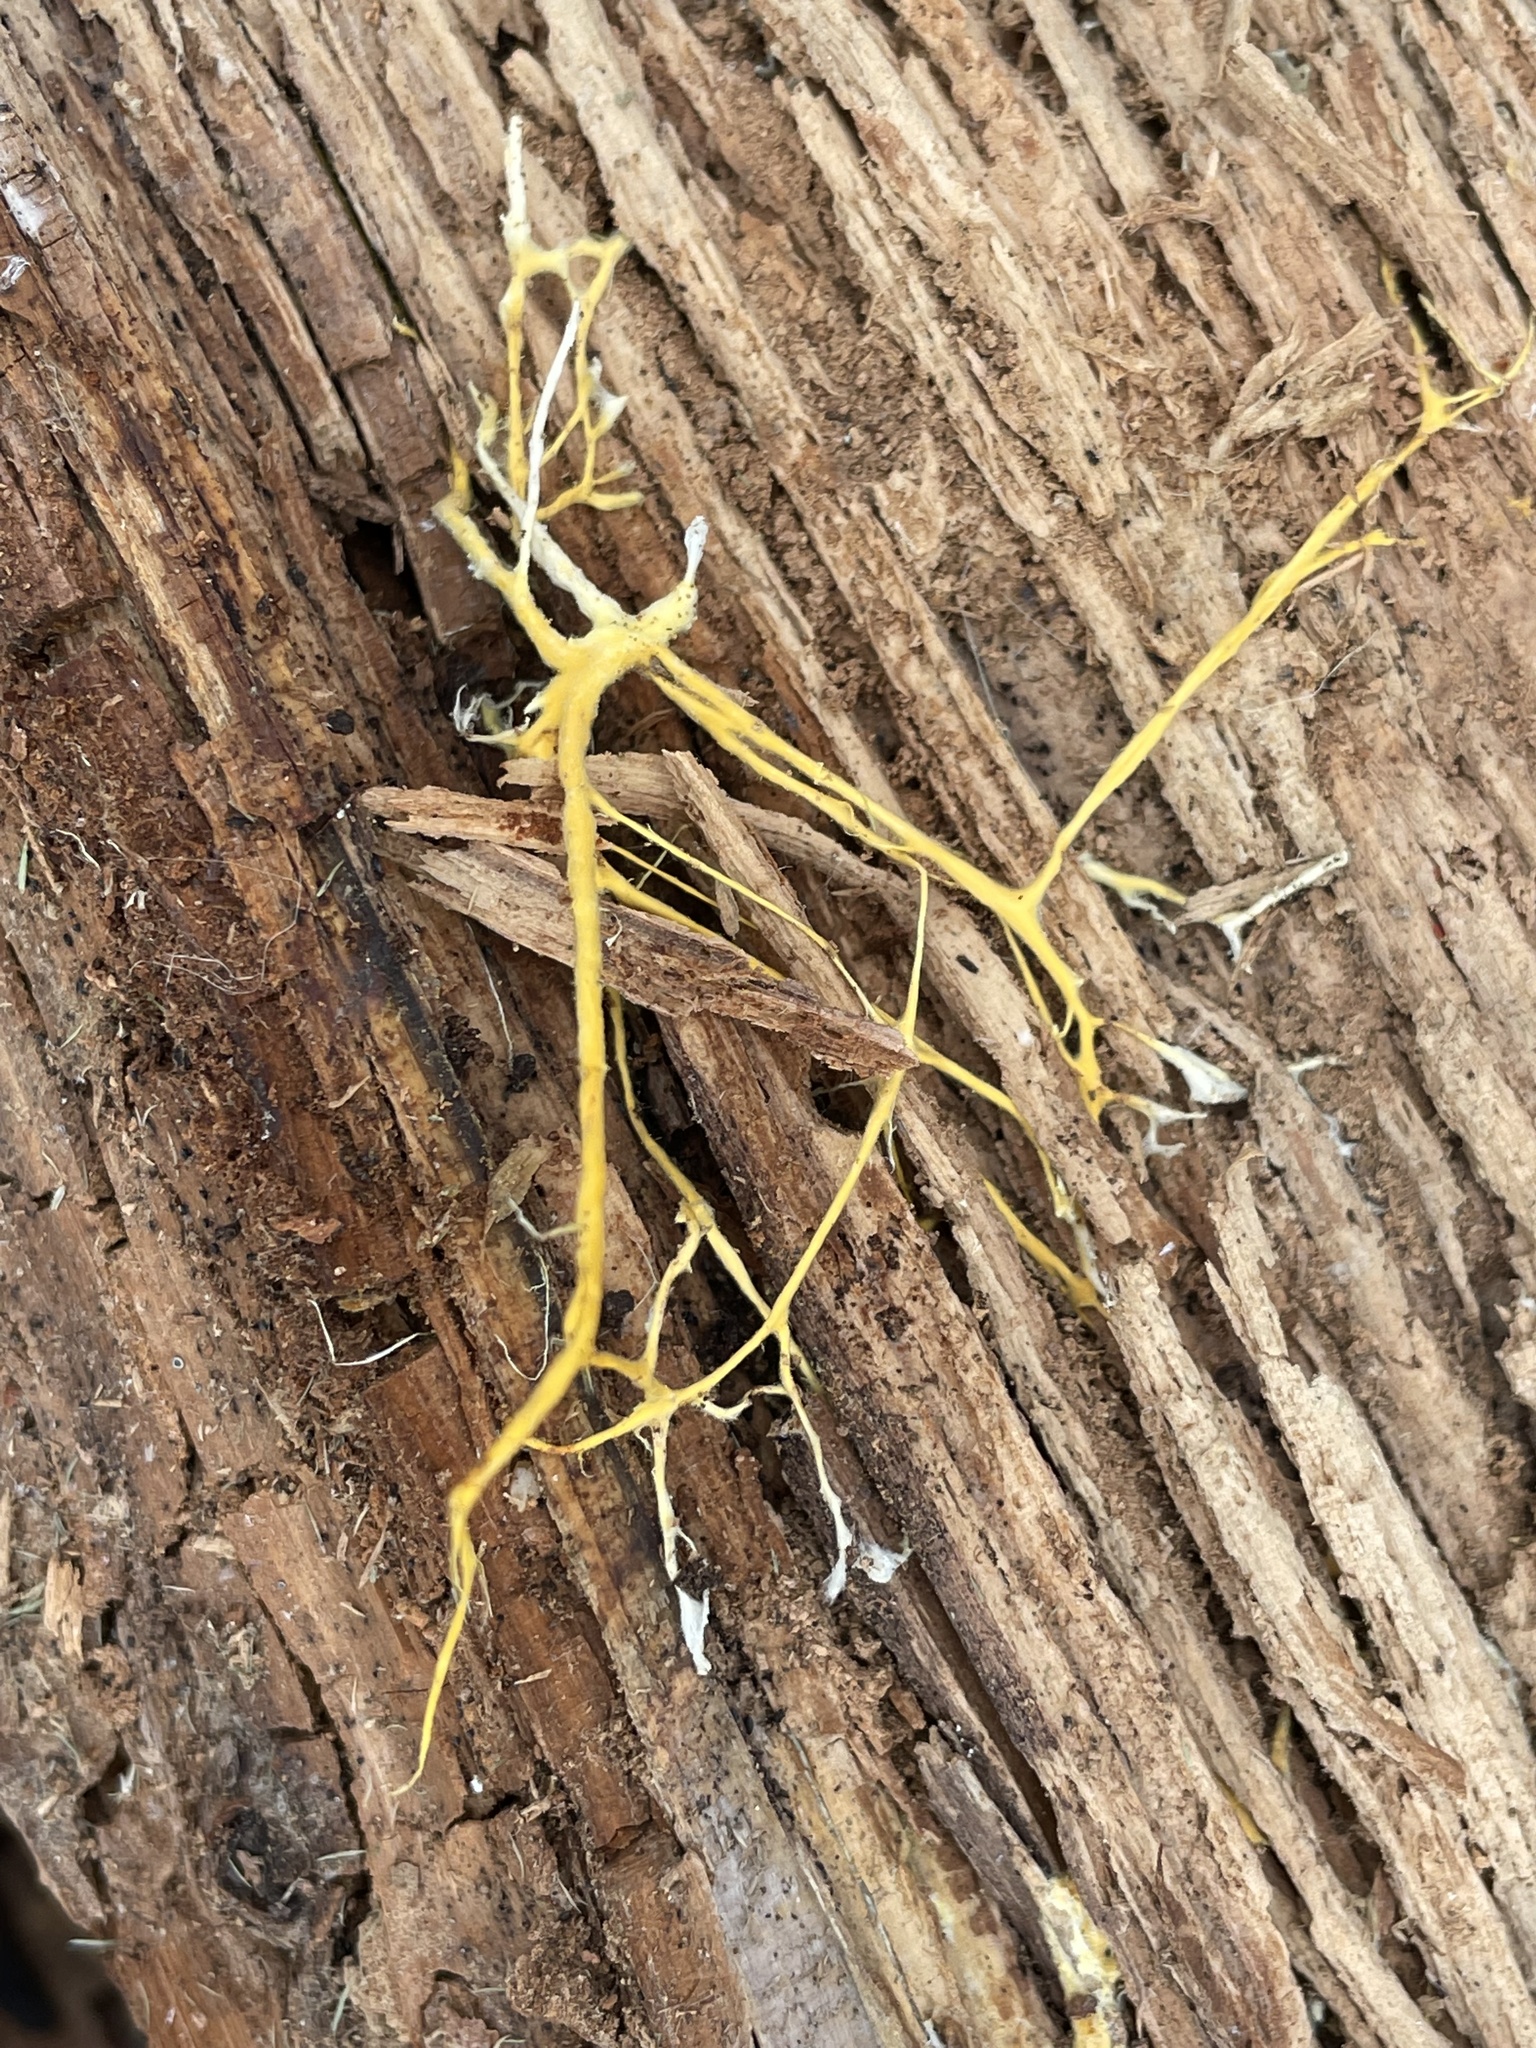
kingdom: Fungi
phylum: Basidiomycota
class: Agaricomycetes
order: Polyporales
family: Meruliaceae
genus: Hydnophlebia
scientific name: Hydnophlebia chrysorhiza
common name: Spreading yellow tooth
